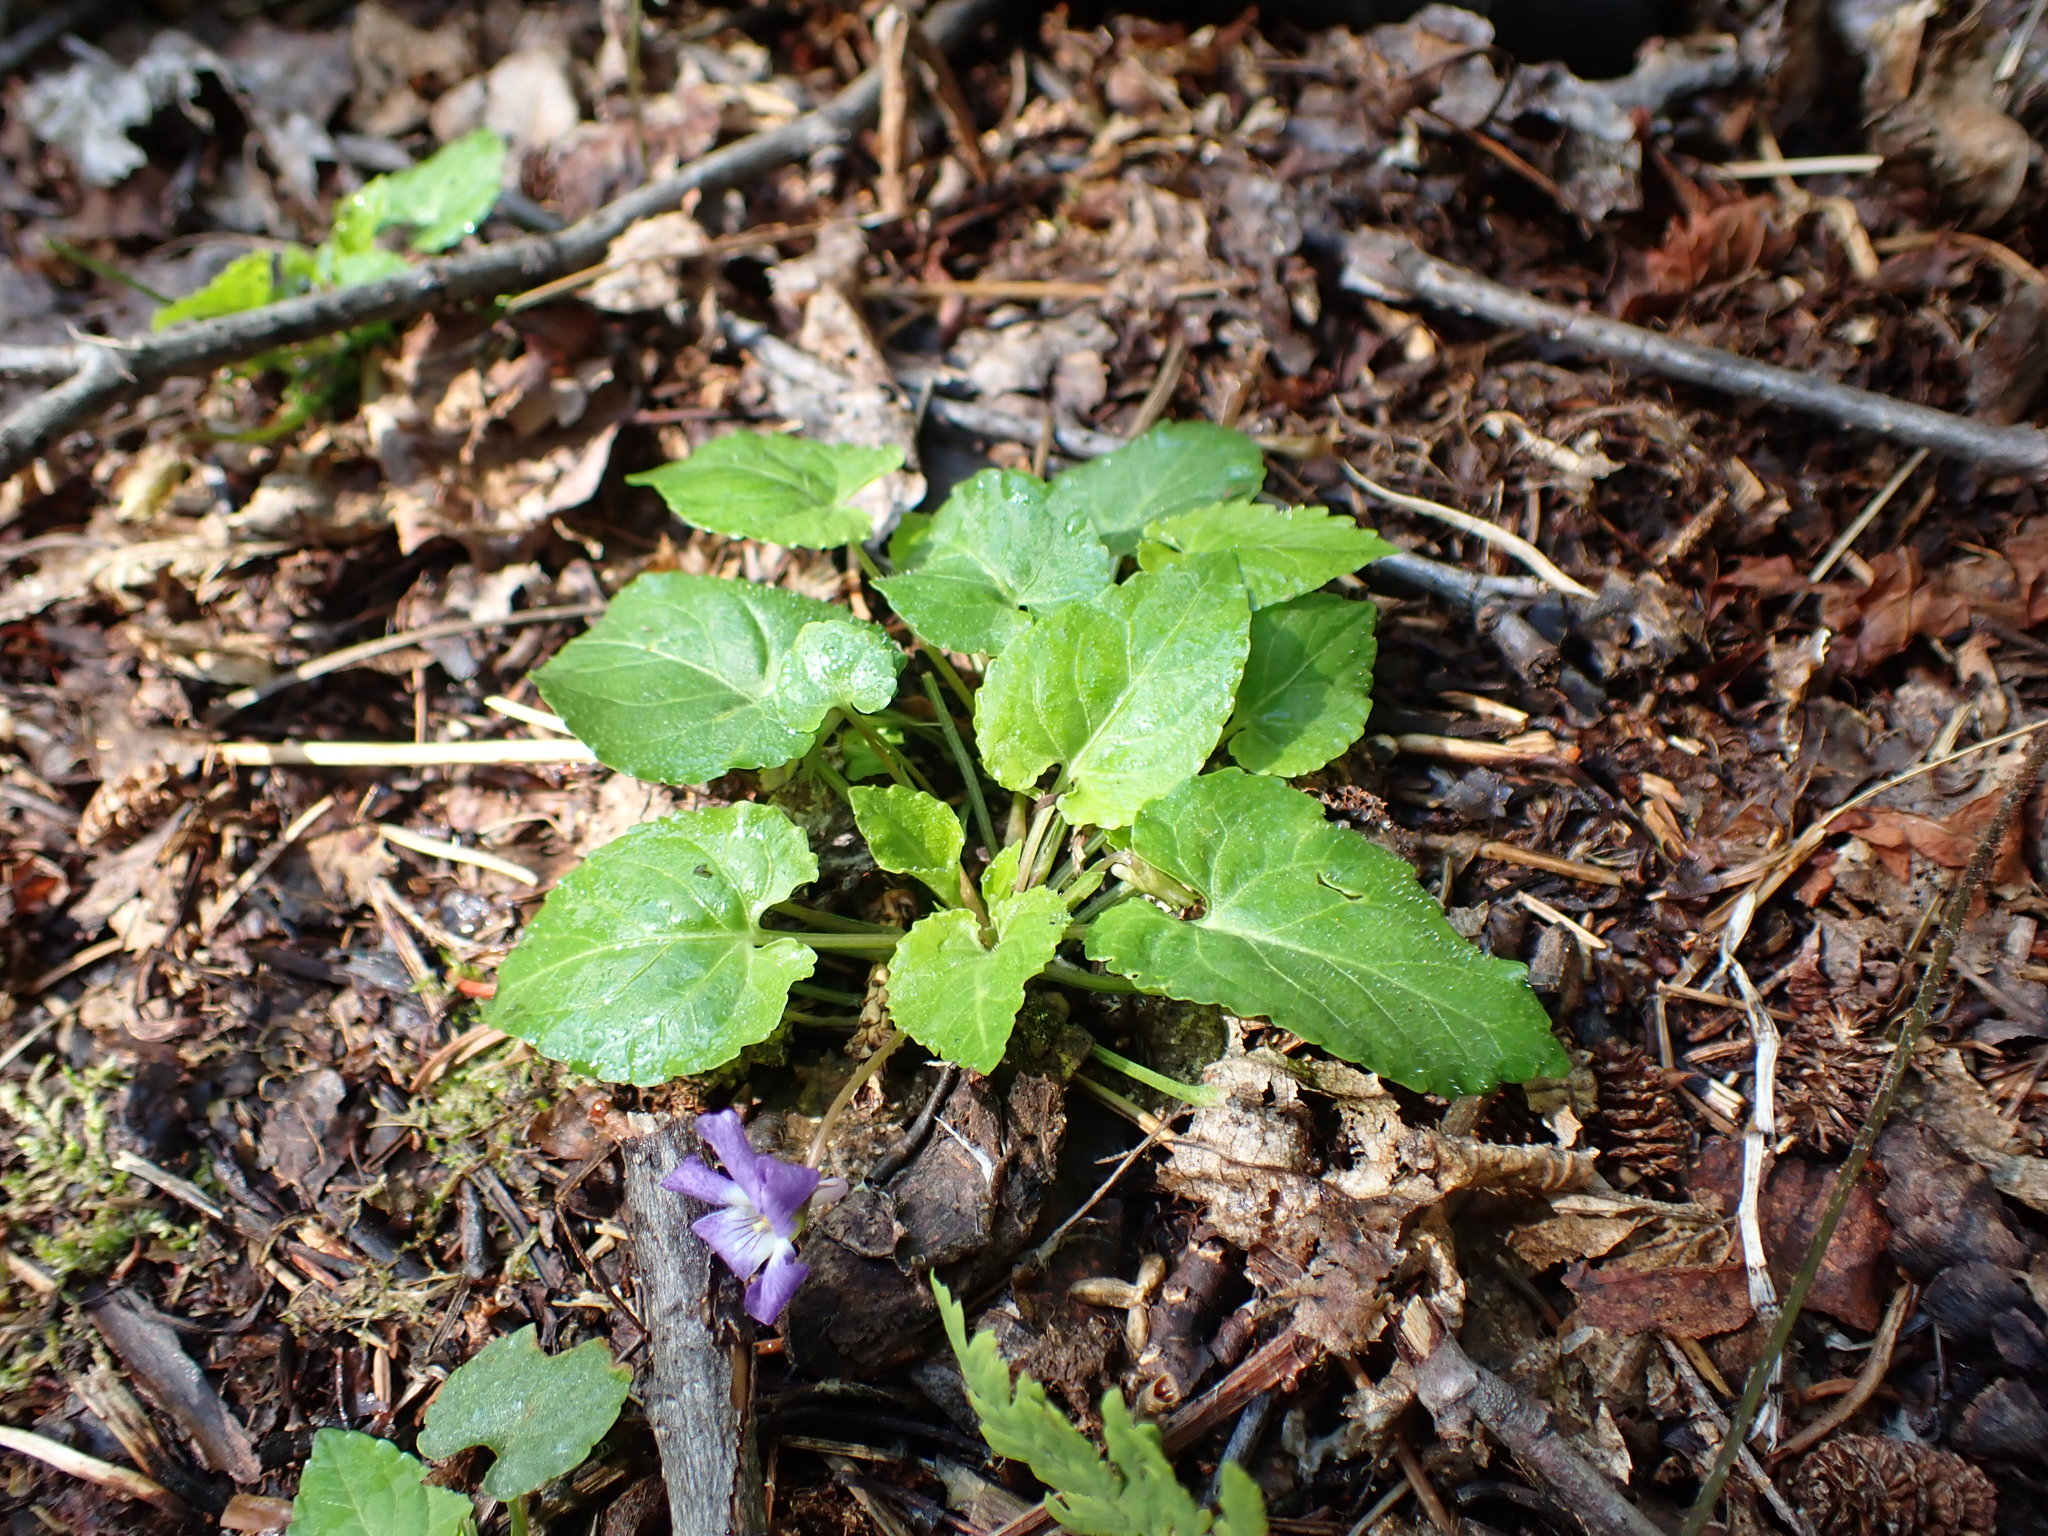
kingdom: Plantae
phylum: Tracheophyta
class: Magnoliopsida
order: Malpighiales
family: Violaceae
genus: Viola
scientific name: Viola selkirkii
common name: Selkirk's violet
